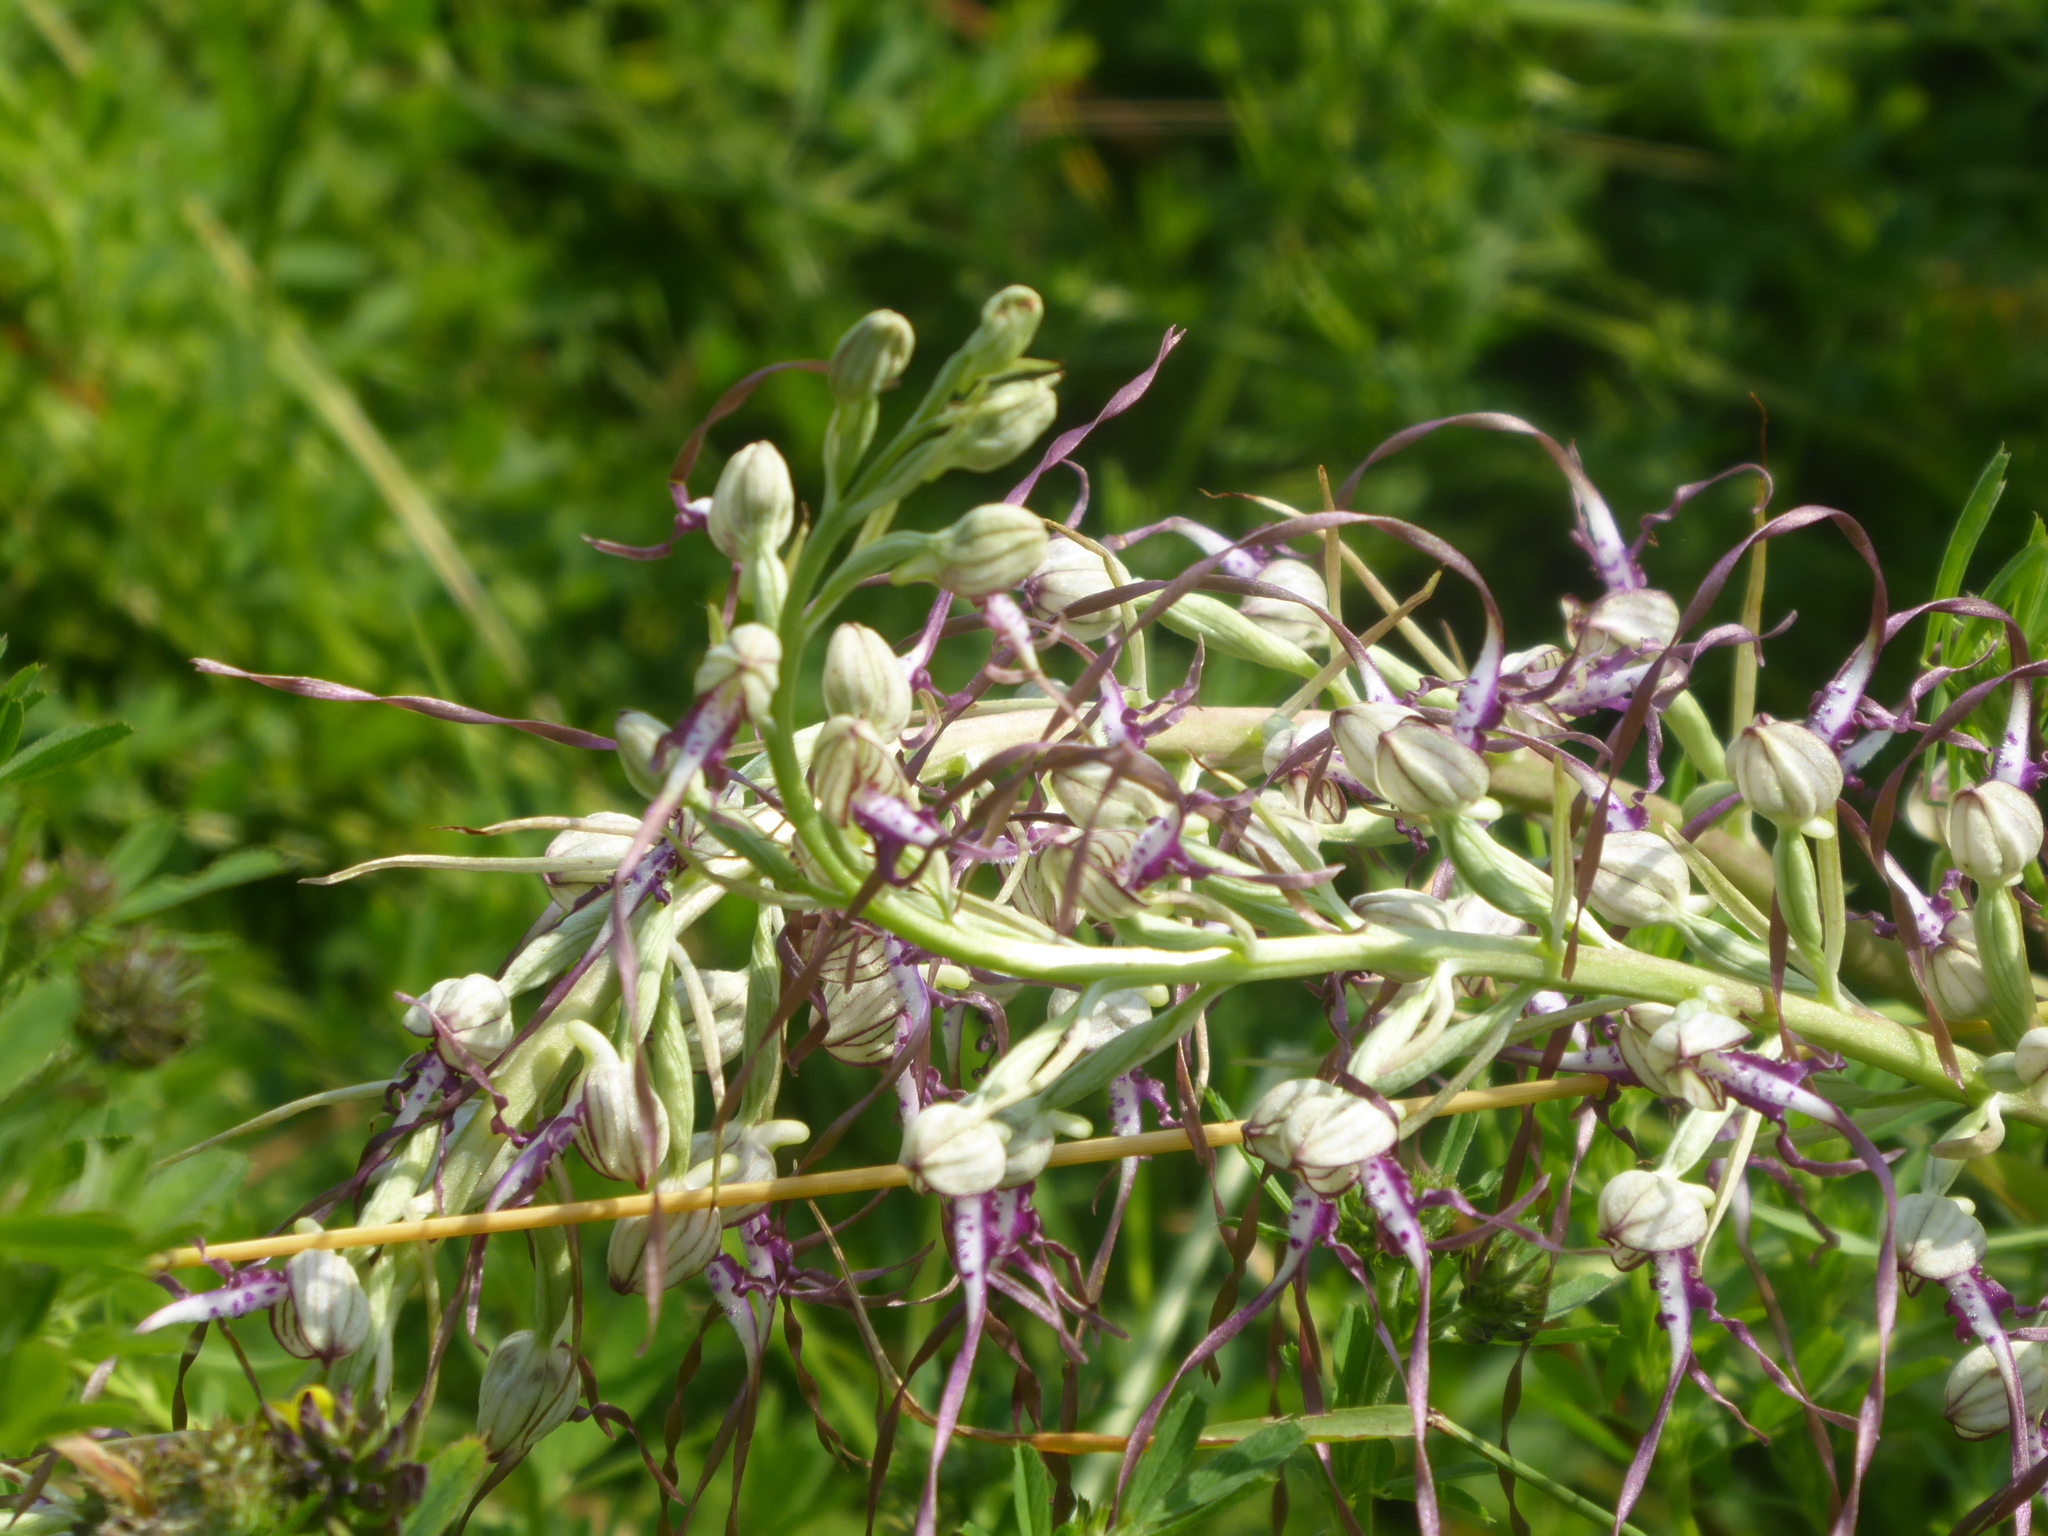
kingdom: Plantae
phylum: Tracheophyta
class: Liliopsida
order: Asparagales
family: Orchidaceae
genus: Himantoglossum
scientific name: Himantoglossum adriaticum
